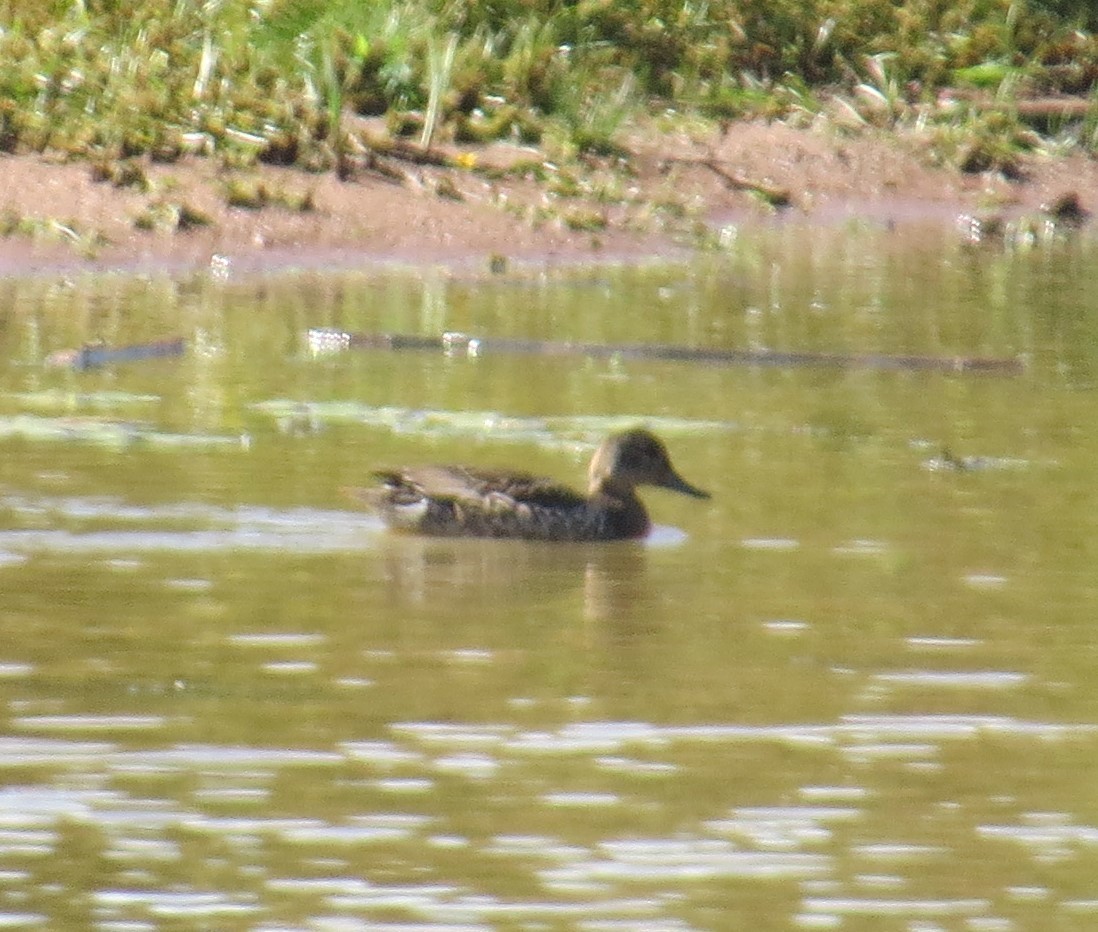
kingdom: Animalia
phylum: Chordata
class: Aves
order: Anseriformes
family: Anatidae
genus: Anas
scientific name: Anas crecca
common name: Eurasian teal
